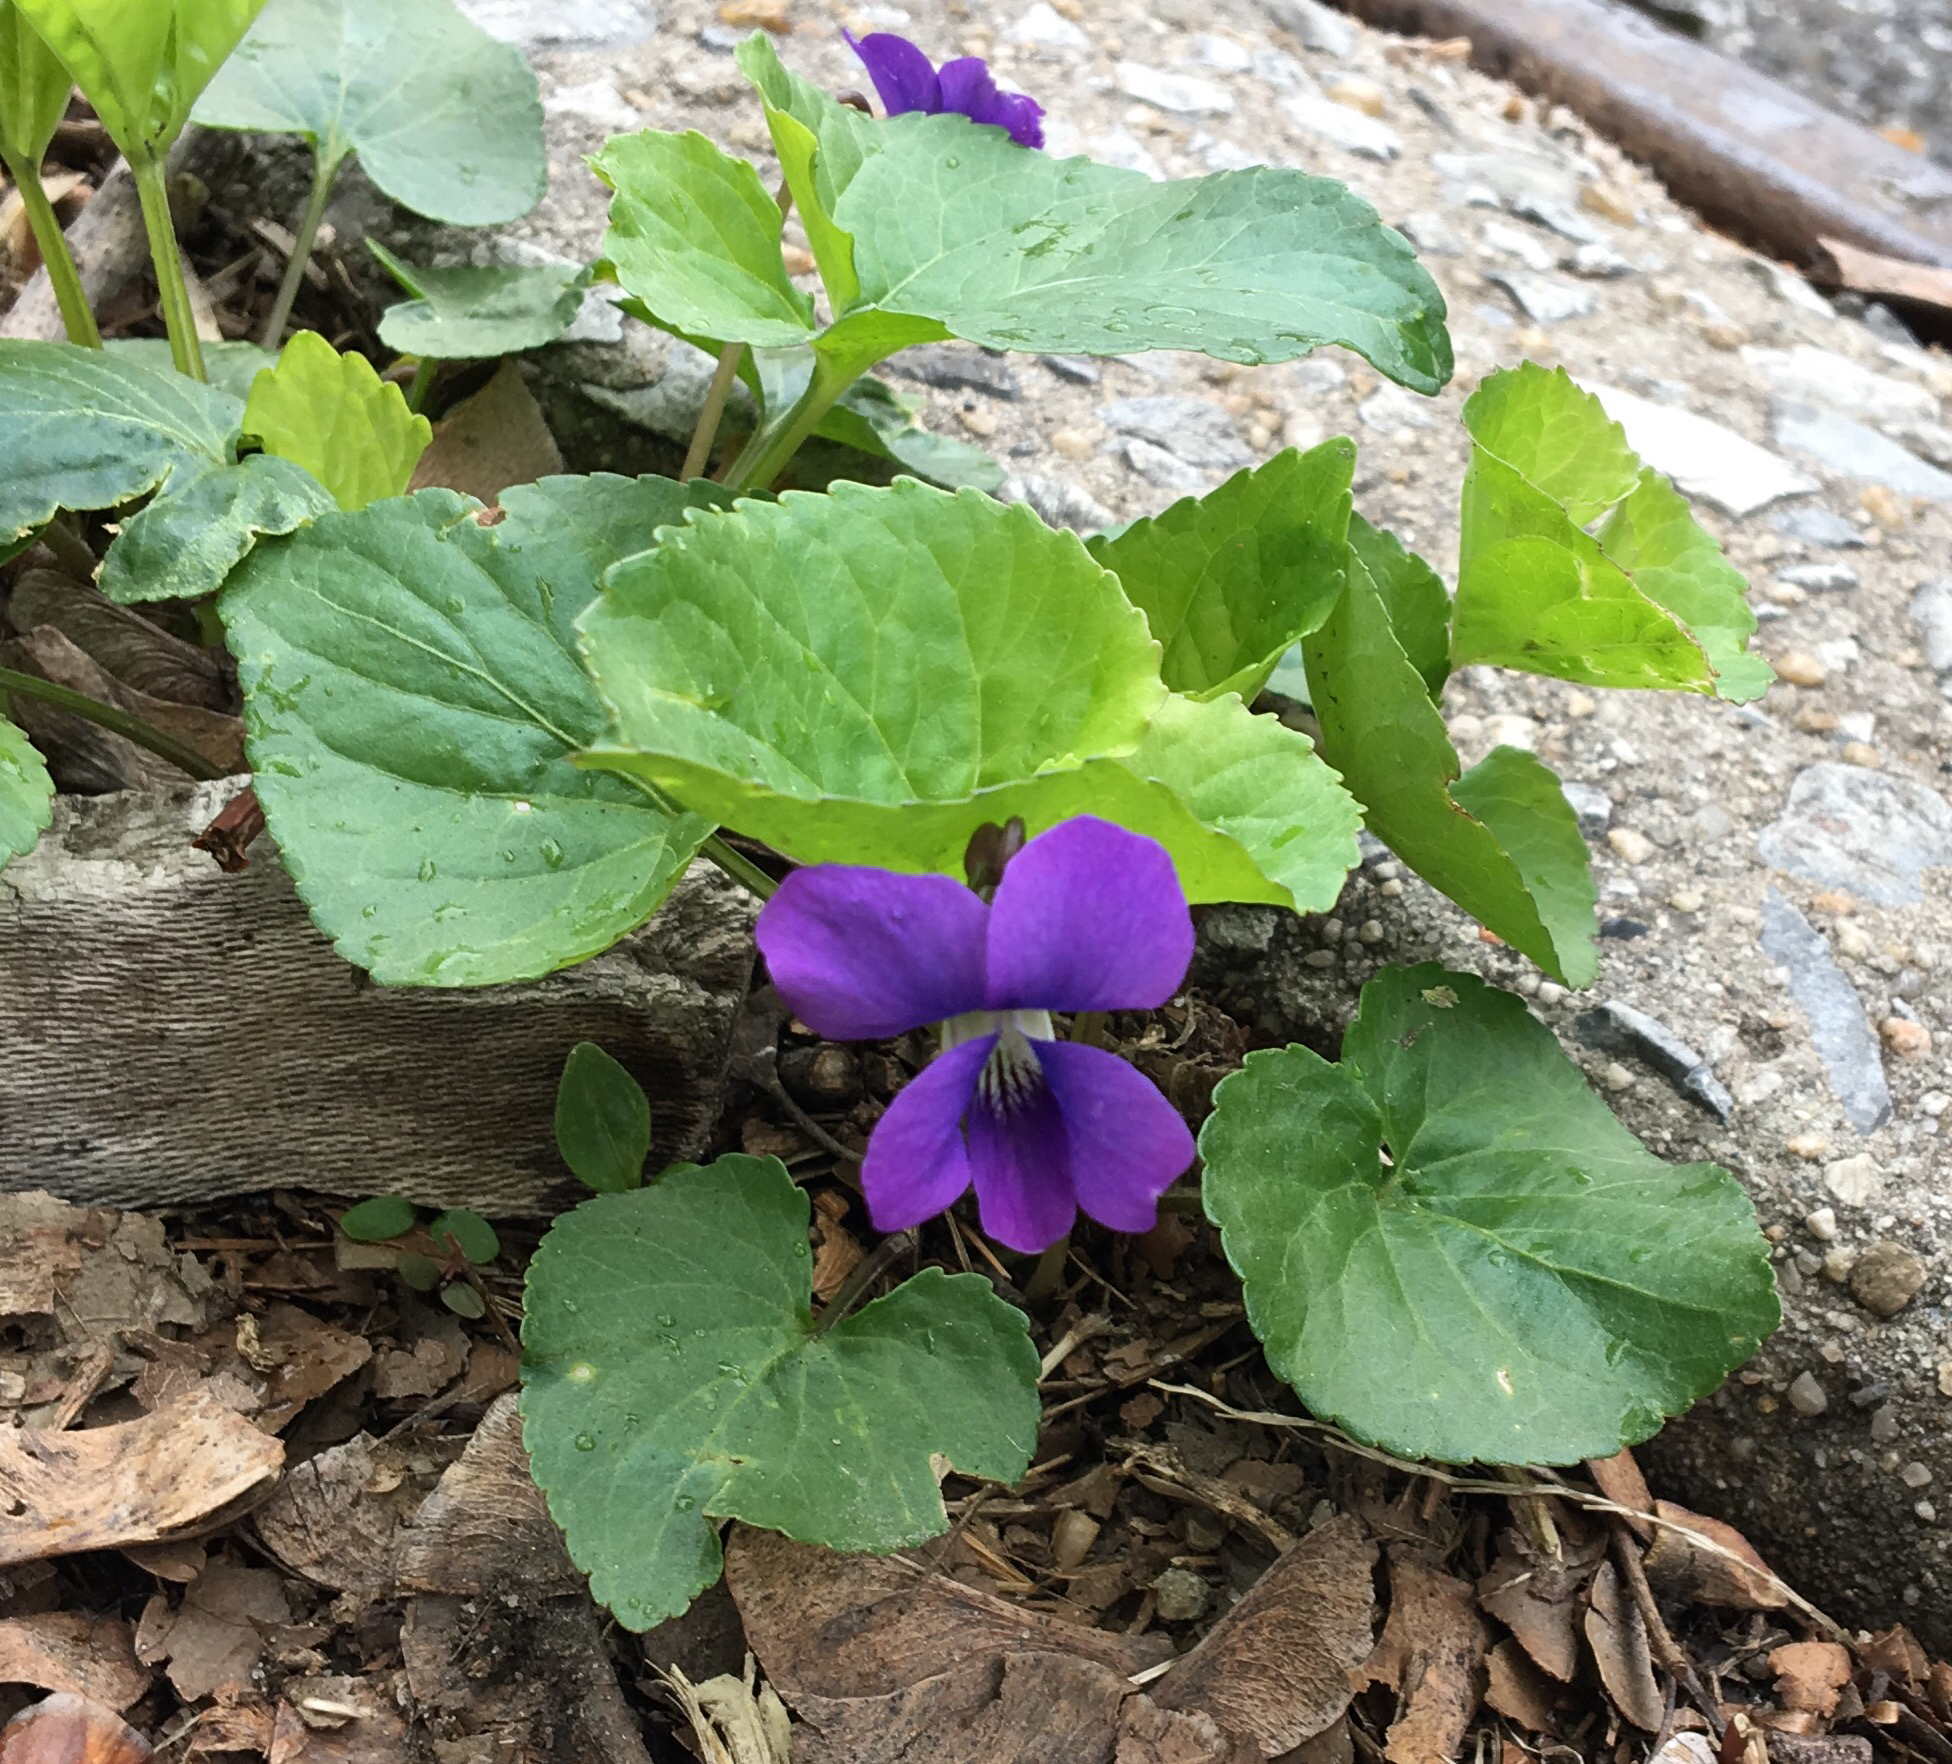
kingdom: Plantae
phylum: Tracheophyta
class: Magnoliopsida
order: Malpighiales
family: Violaceae
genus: Viola
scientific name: Viola sororia
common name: Dooryard violet
